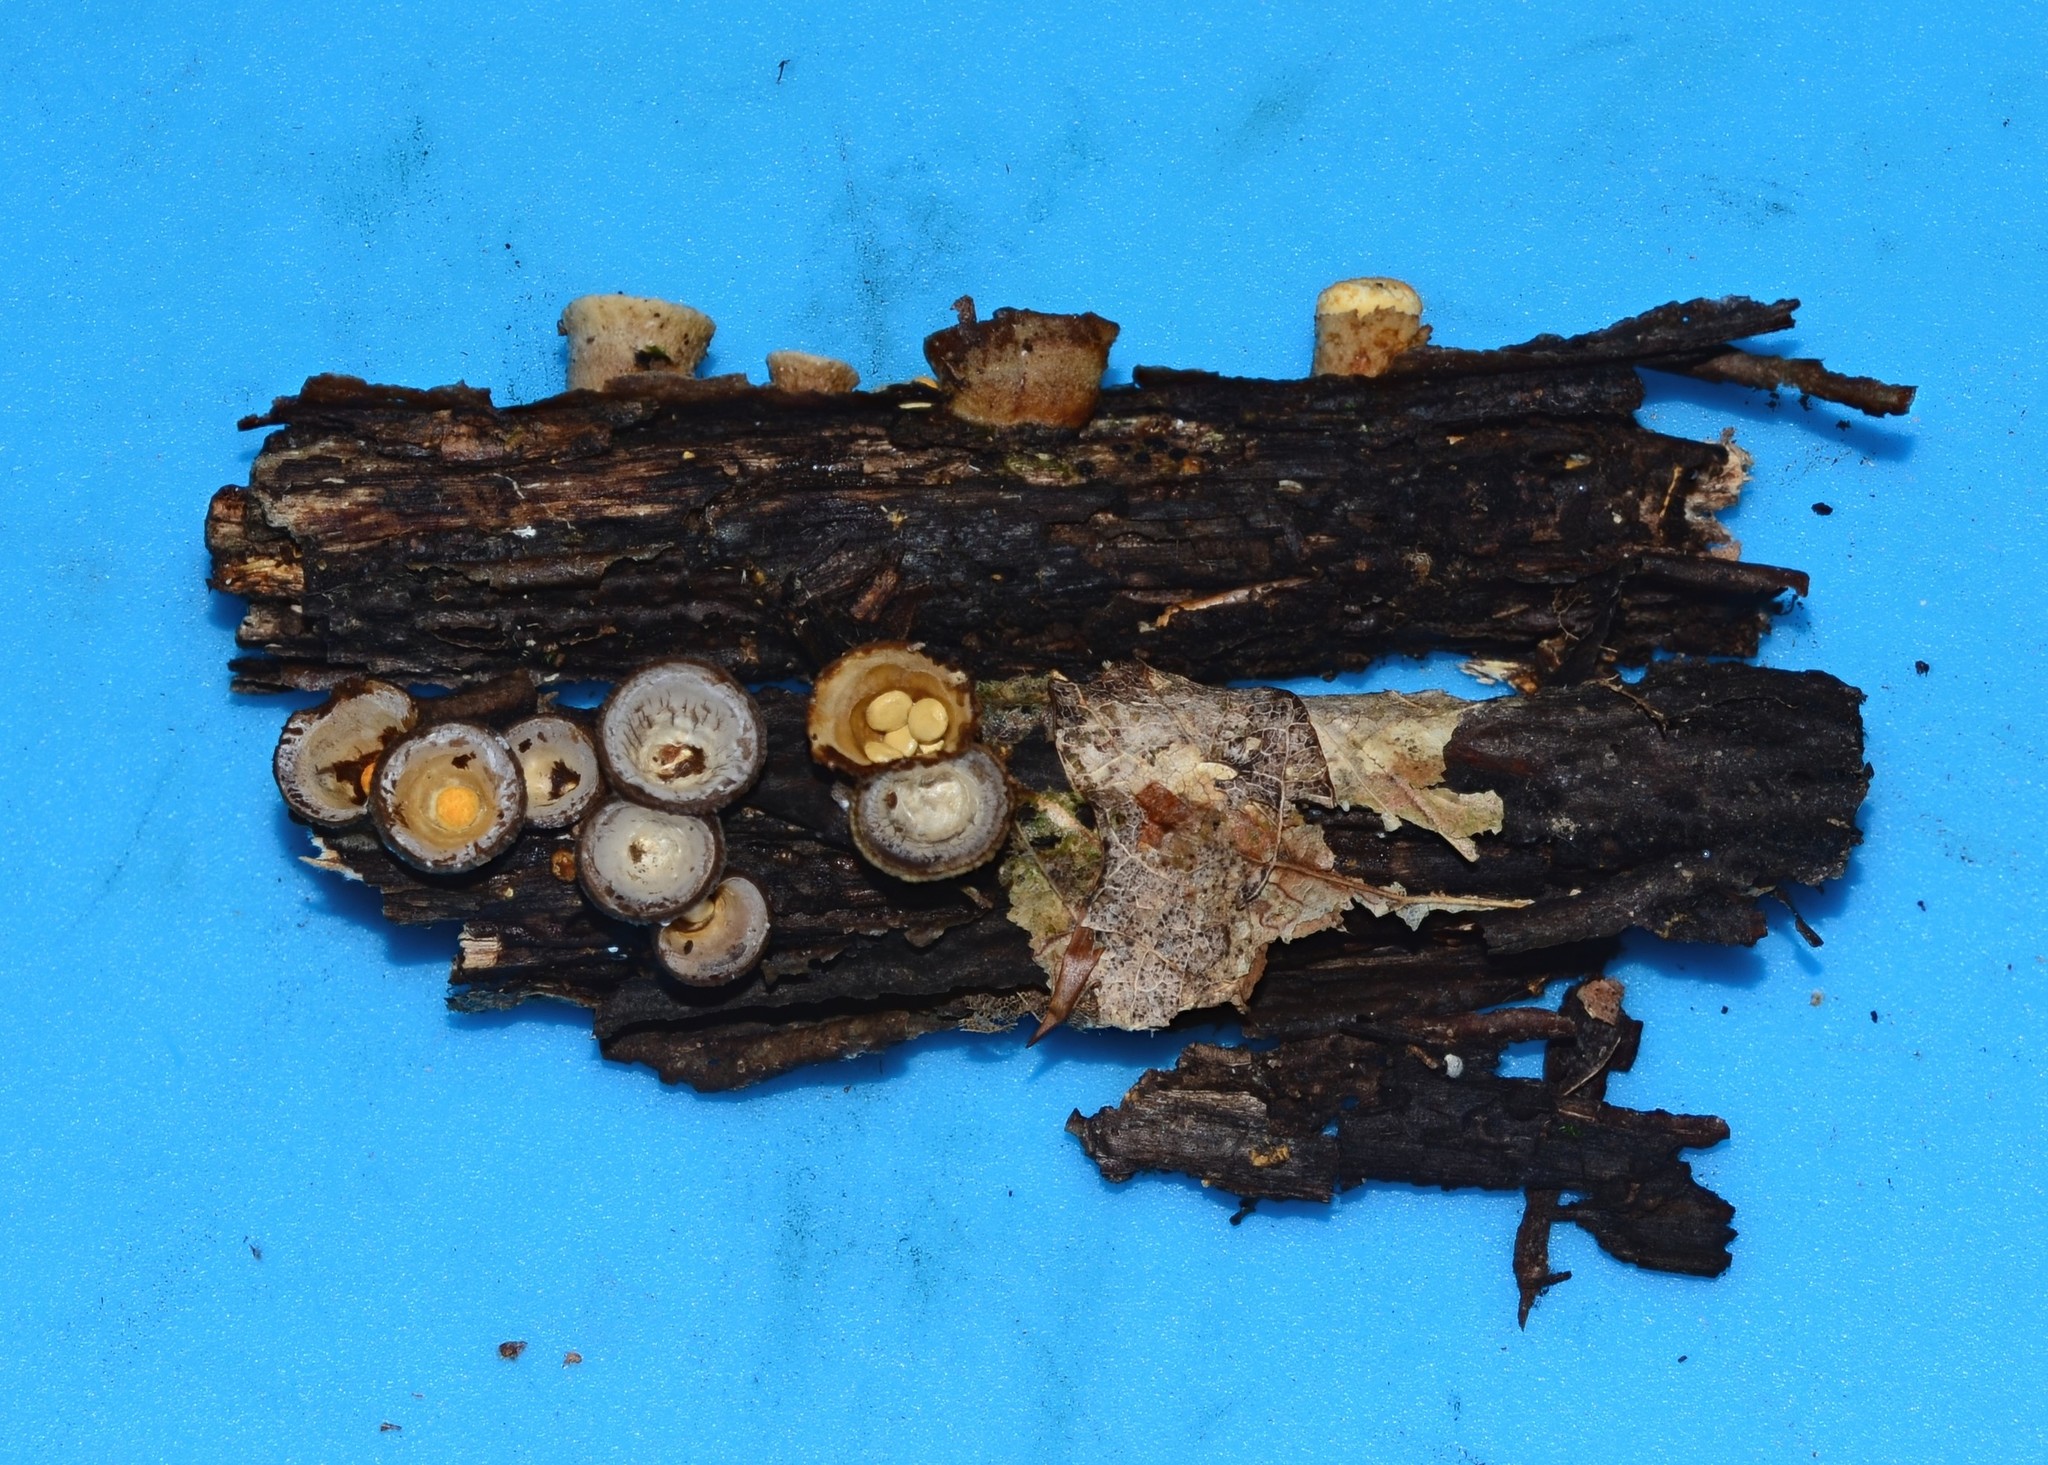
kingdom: Fungi
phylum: Basidiomycota
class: Agaricomycetes
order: Agaricales
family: Nidulariaceae
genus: Crucibulum
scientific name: Crucibulum laeve
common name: Common bird's nest
